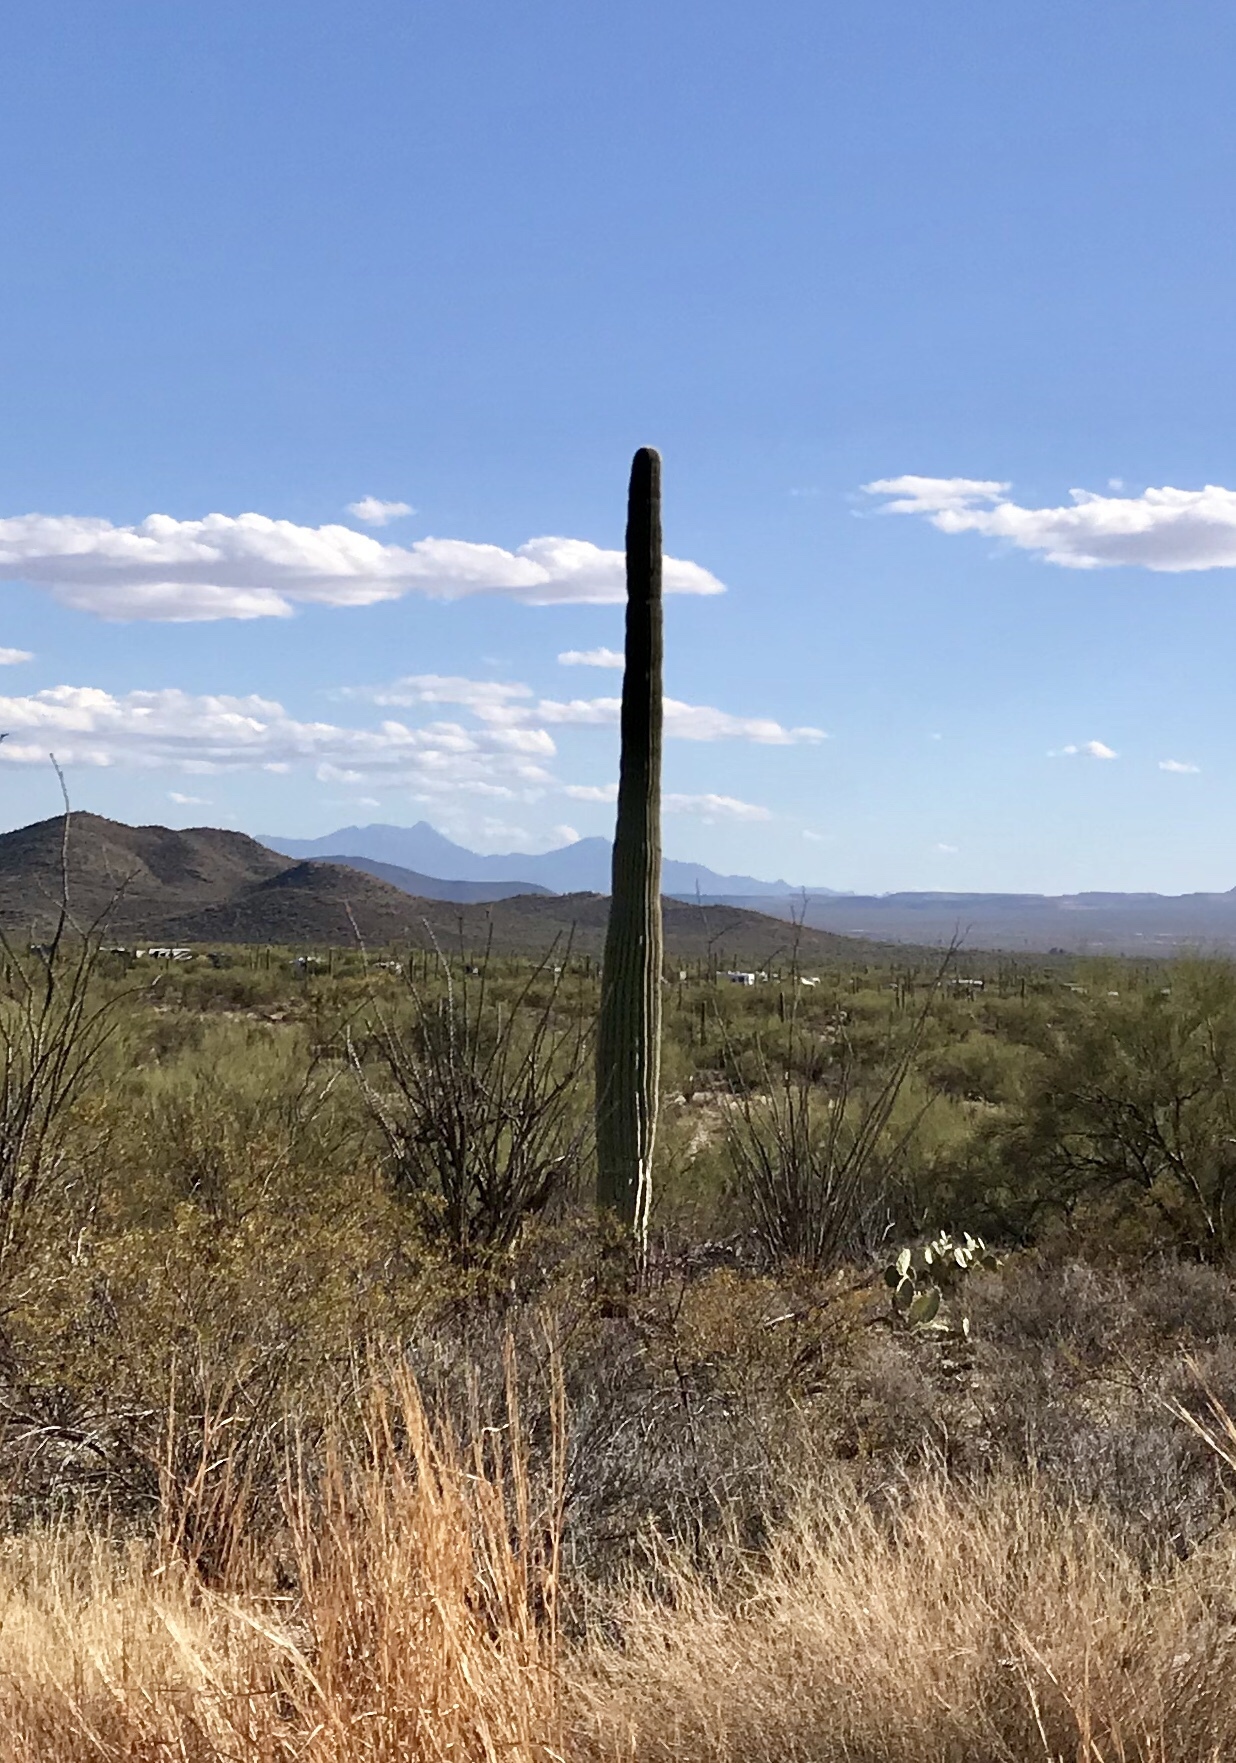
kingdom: Plantae
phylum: Tracheophyta
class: Magnoliopsida
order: Caryophyllales
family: Cactaceae
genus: Carnegiea
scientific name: Carnegiea gigantea
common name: Saguaro
